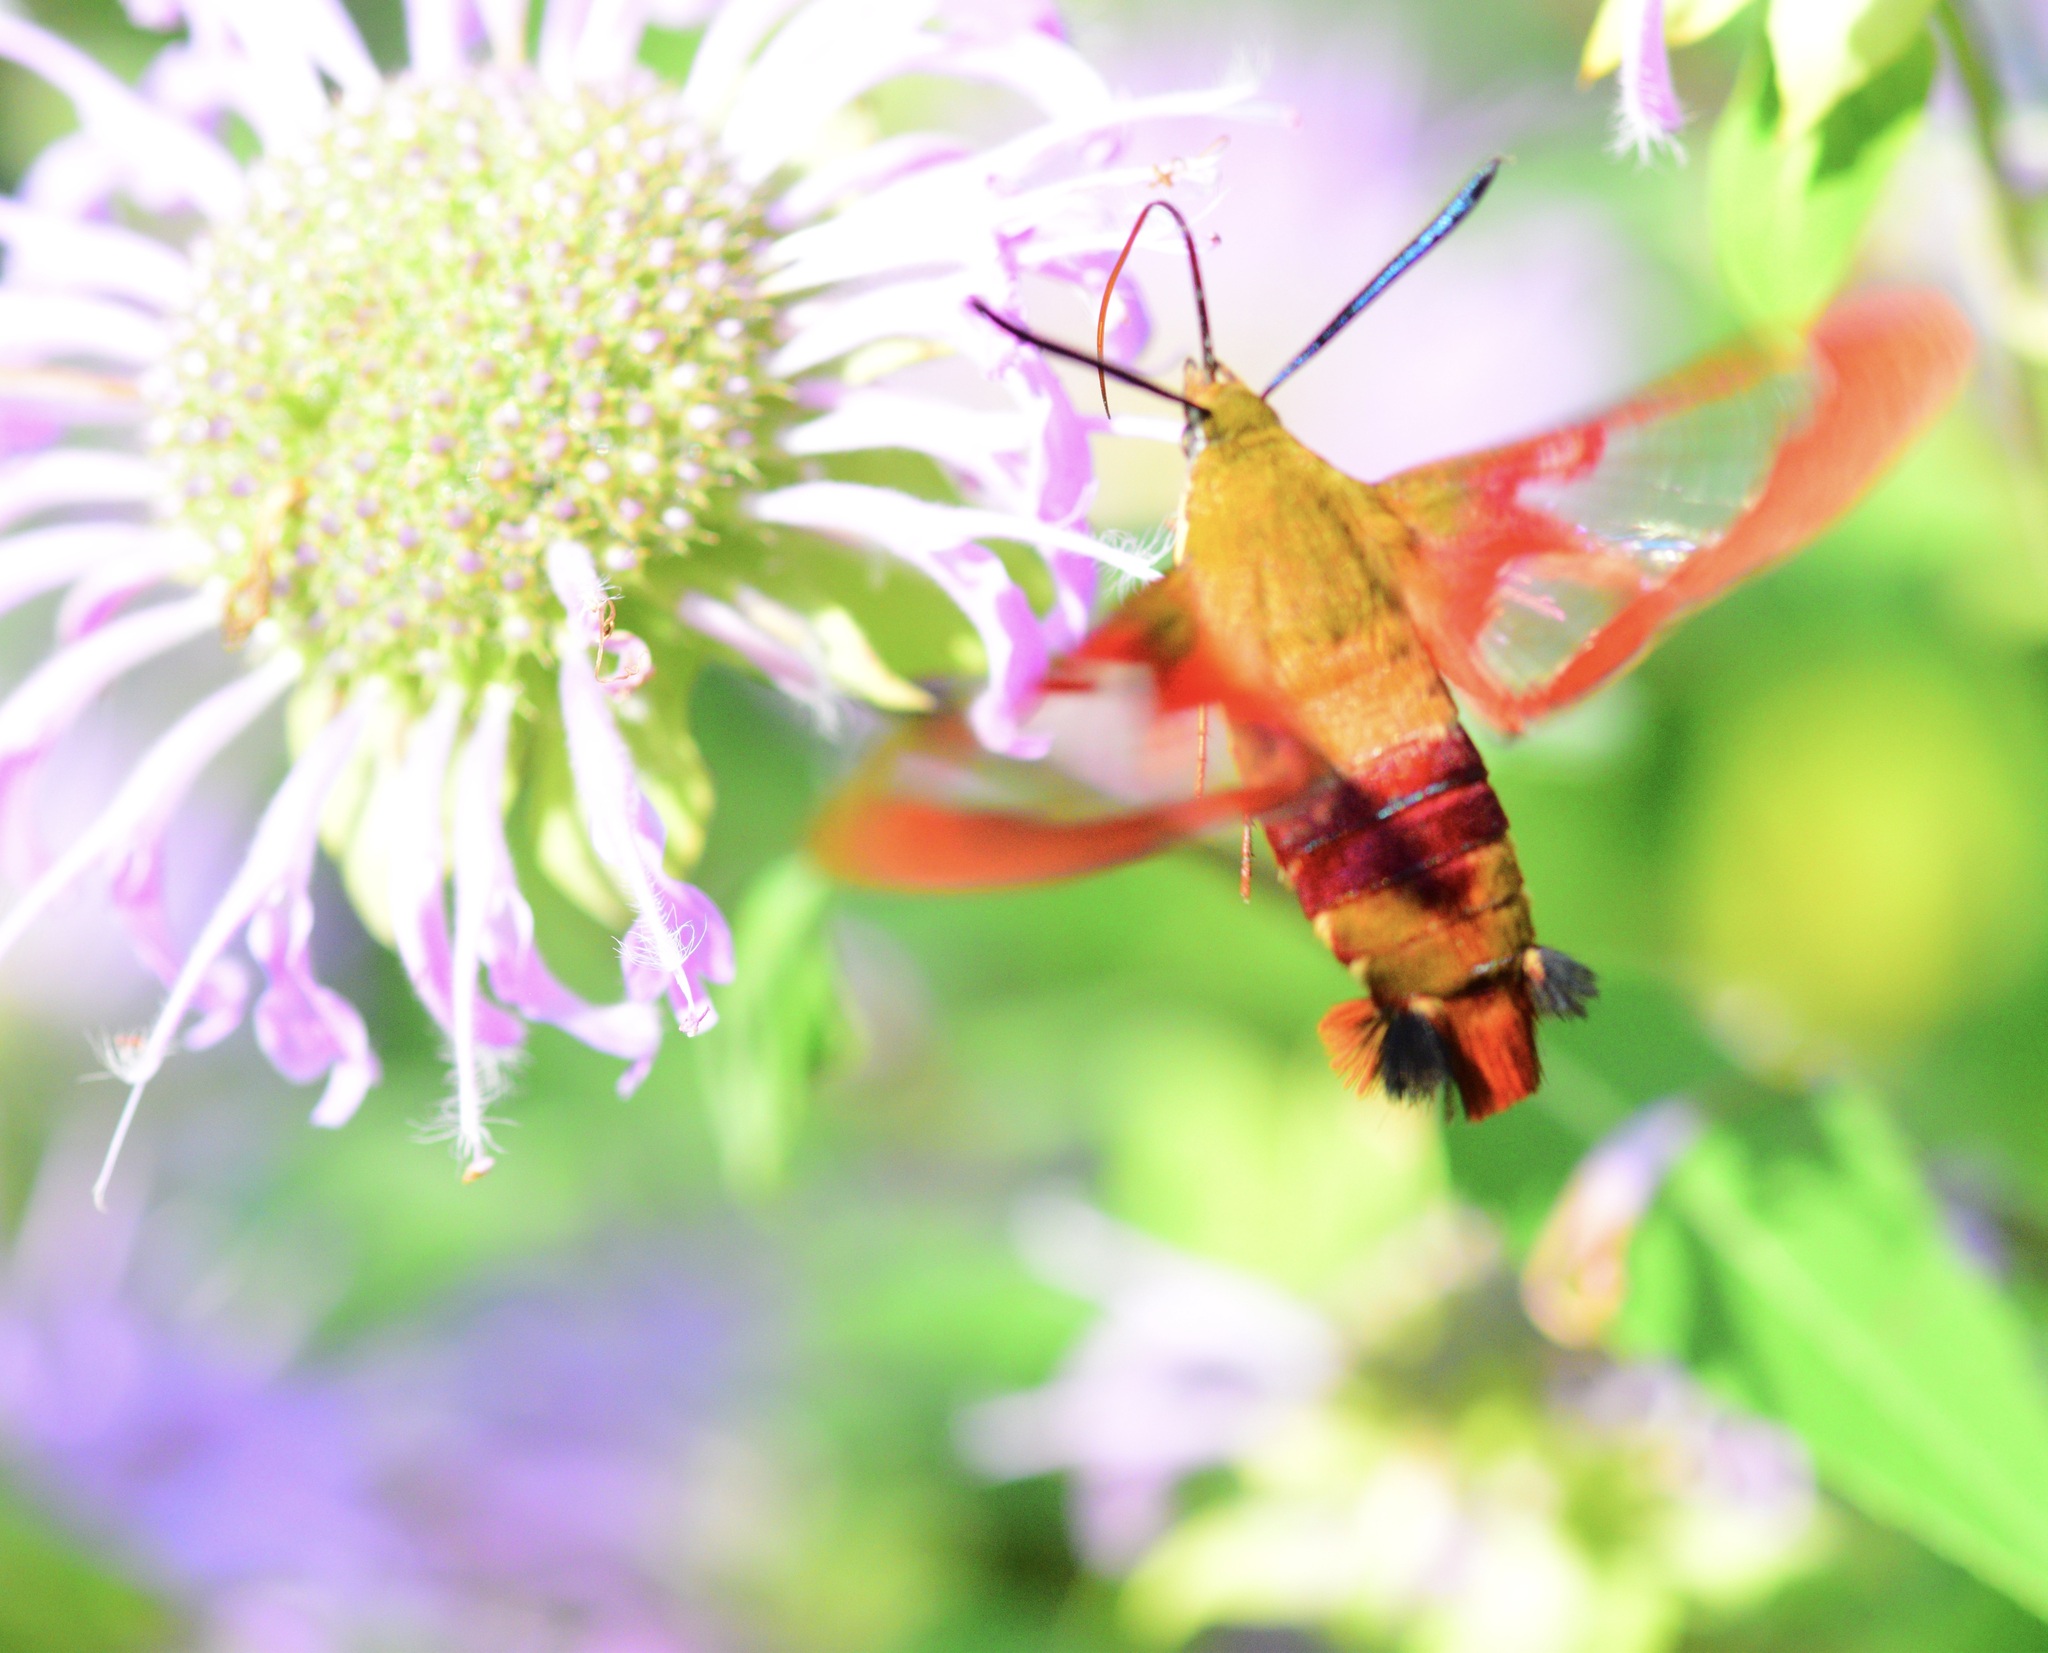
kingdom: Animalia
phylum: Arthropoda
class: Insecta
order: Lepidoptera
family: Sphingidae
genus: Hemaris
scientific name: Hemaris thysbe
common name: Common clear-wing
